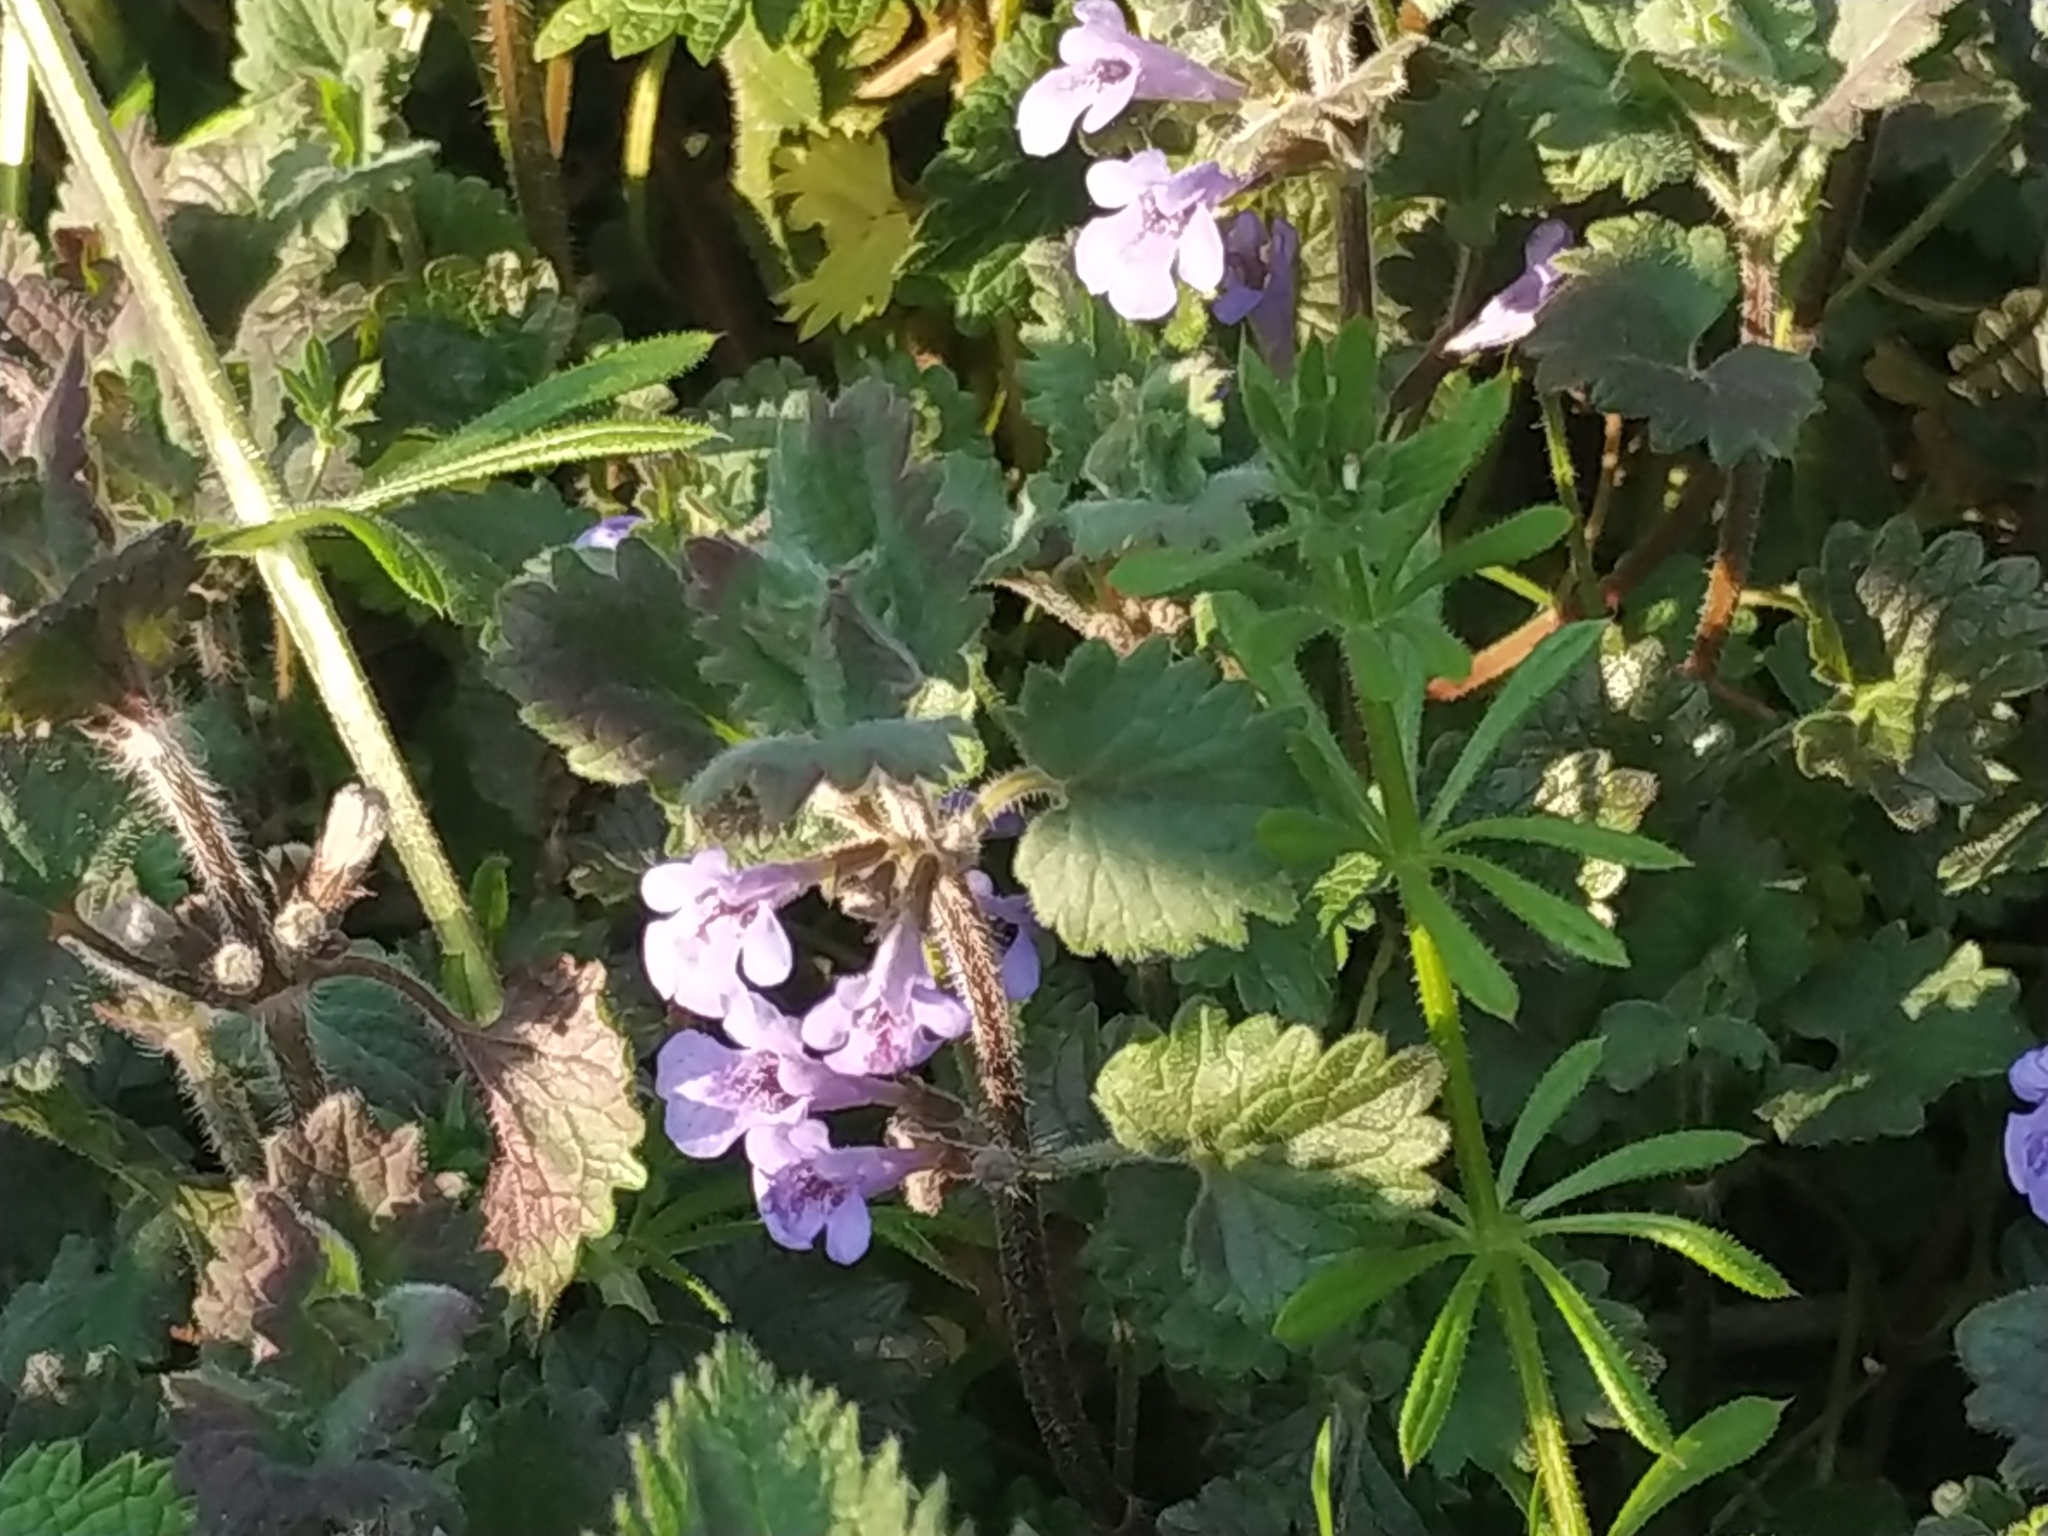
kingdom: Plantae
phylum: Tracheophyta
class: Magnoliopsida
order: Lamiales
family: Lamiaceae
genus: Glechoma
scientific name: Glechoma hederacea
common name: Ground ivy
